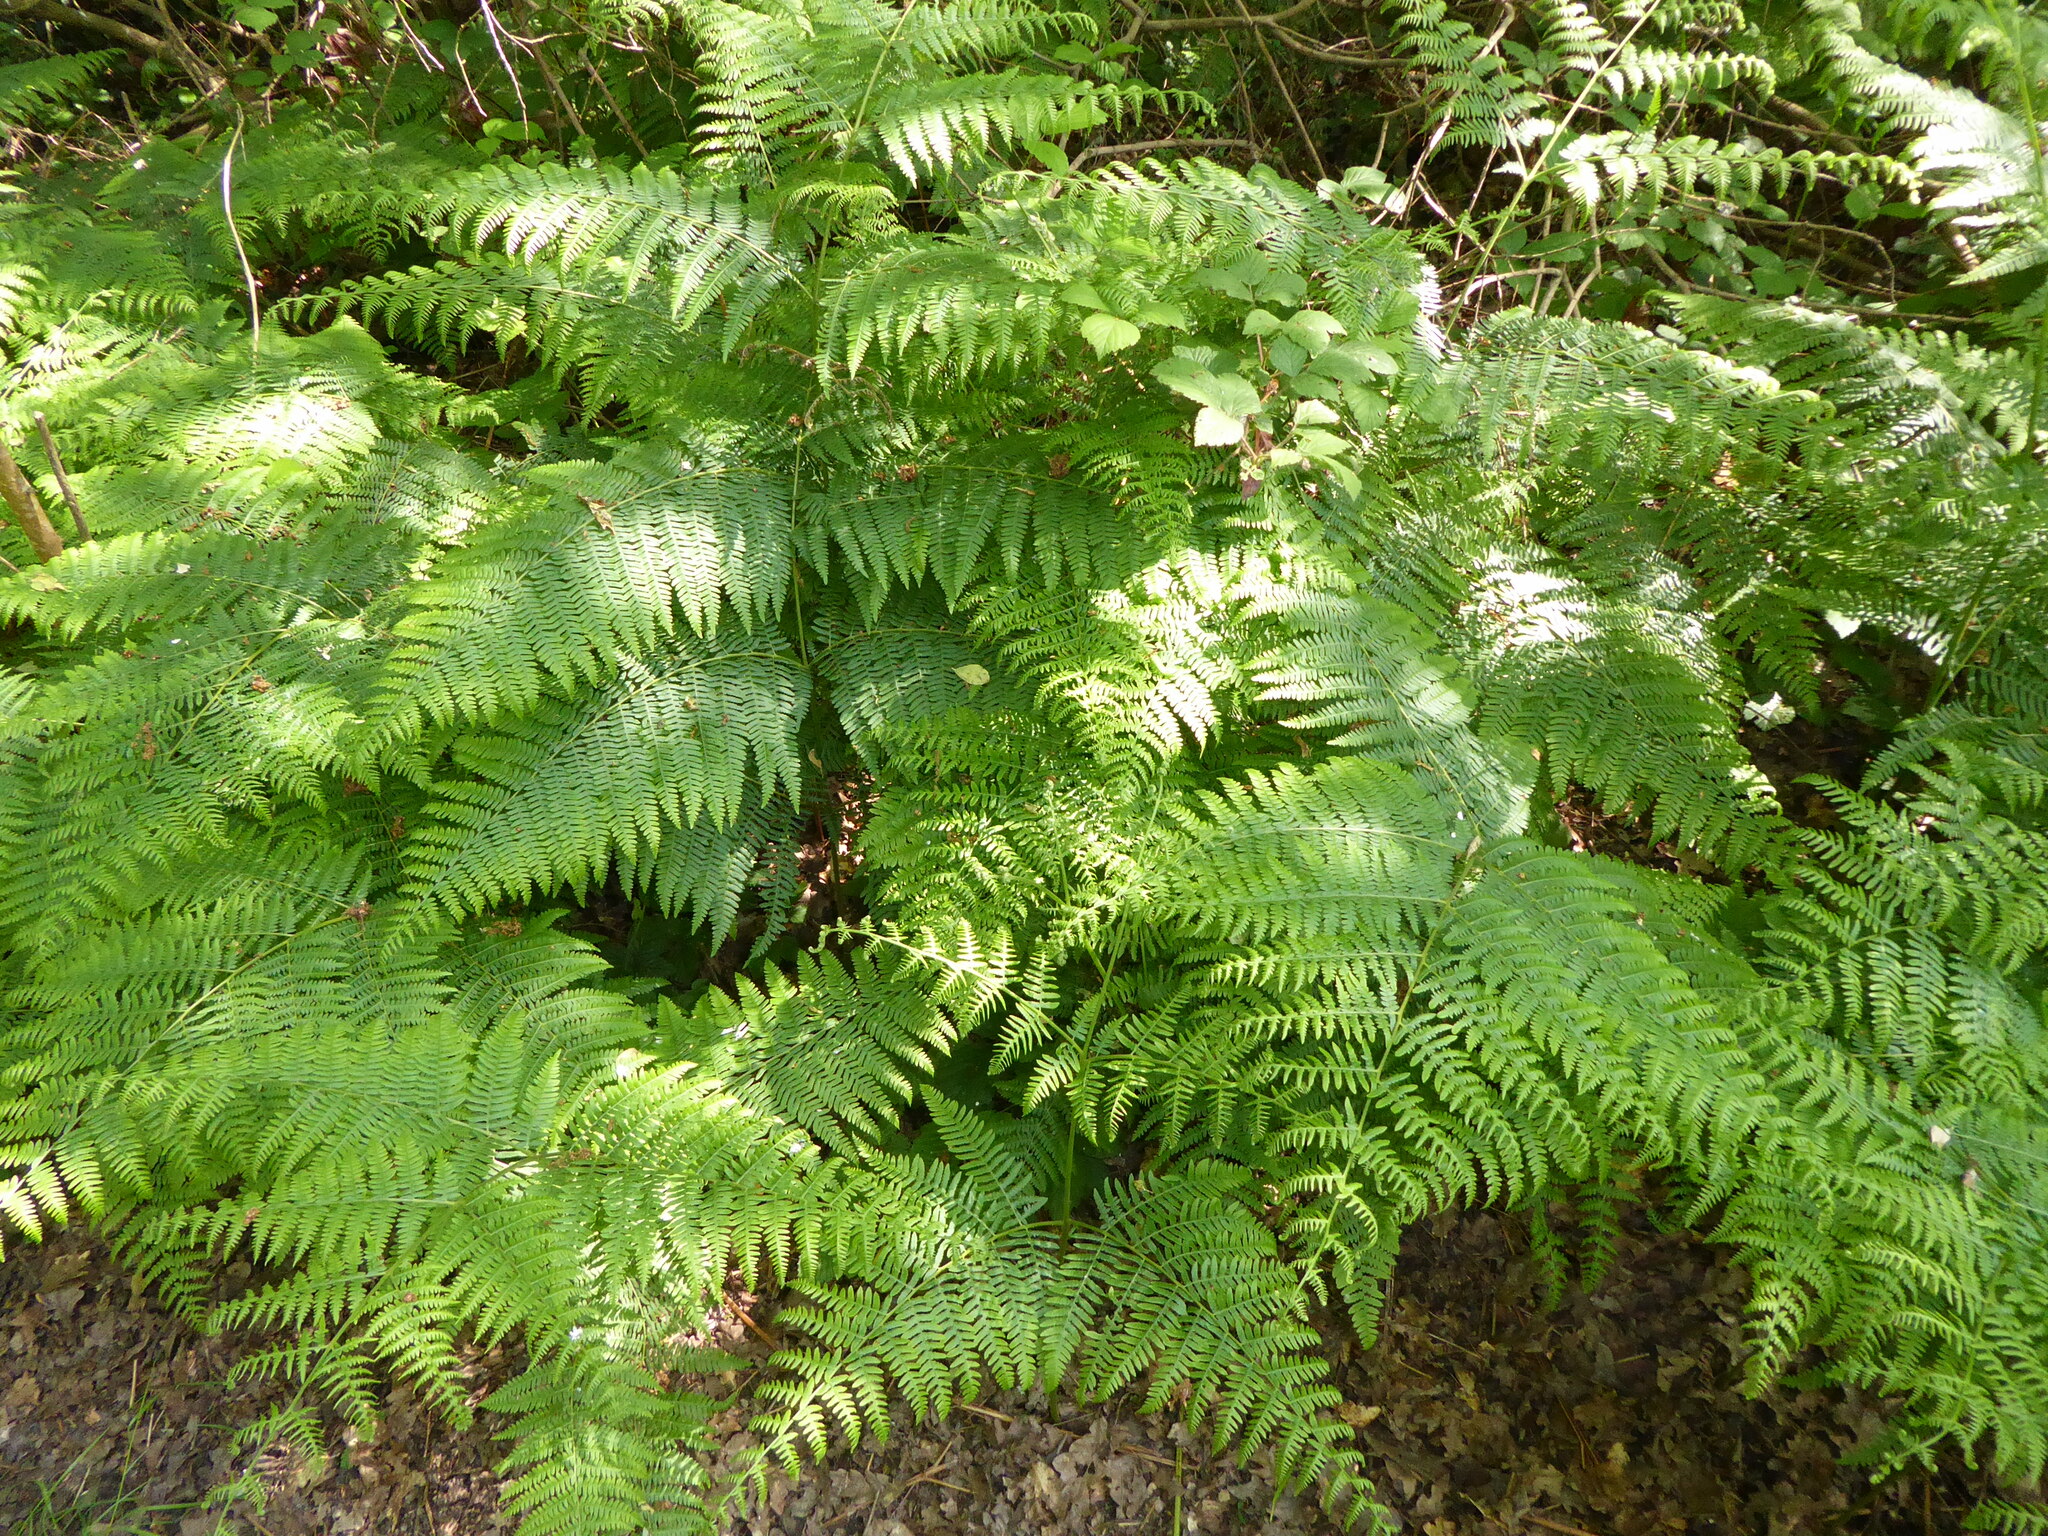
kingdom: Plantae
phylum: Tracheophyta
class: Polypodiopsida
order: Polypodiales
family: Dennstaedtiaceae
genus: Pteridium
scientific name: Pteridium aquilinum
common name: Bracken
